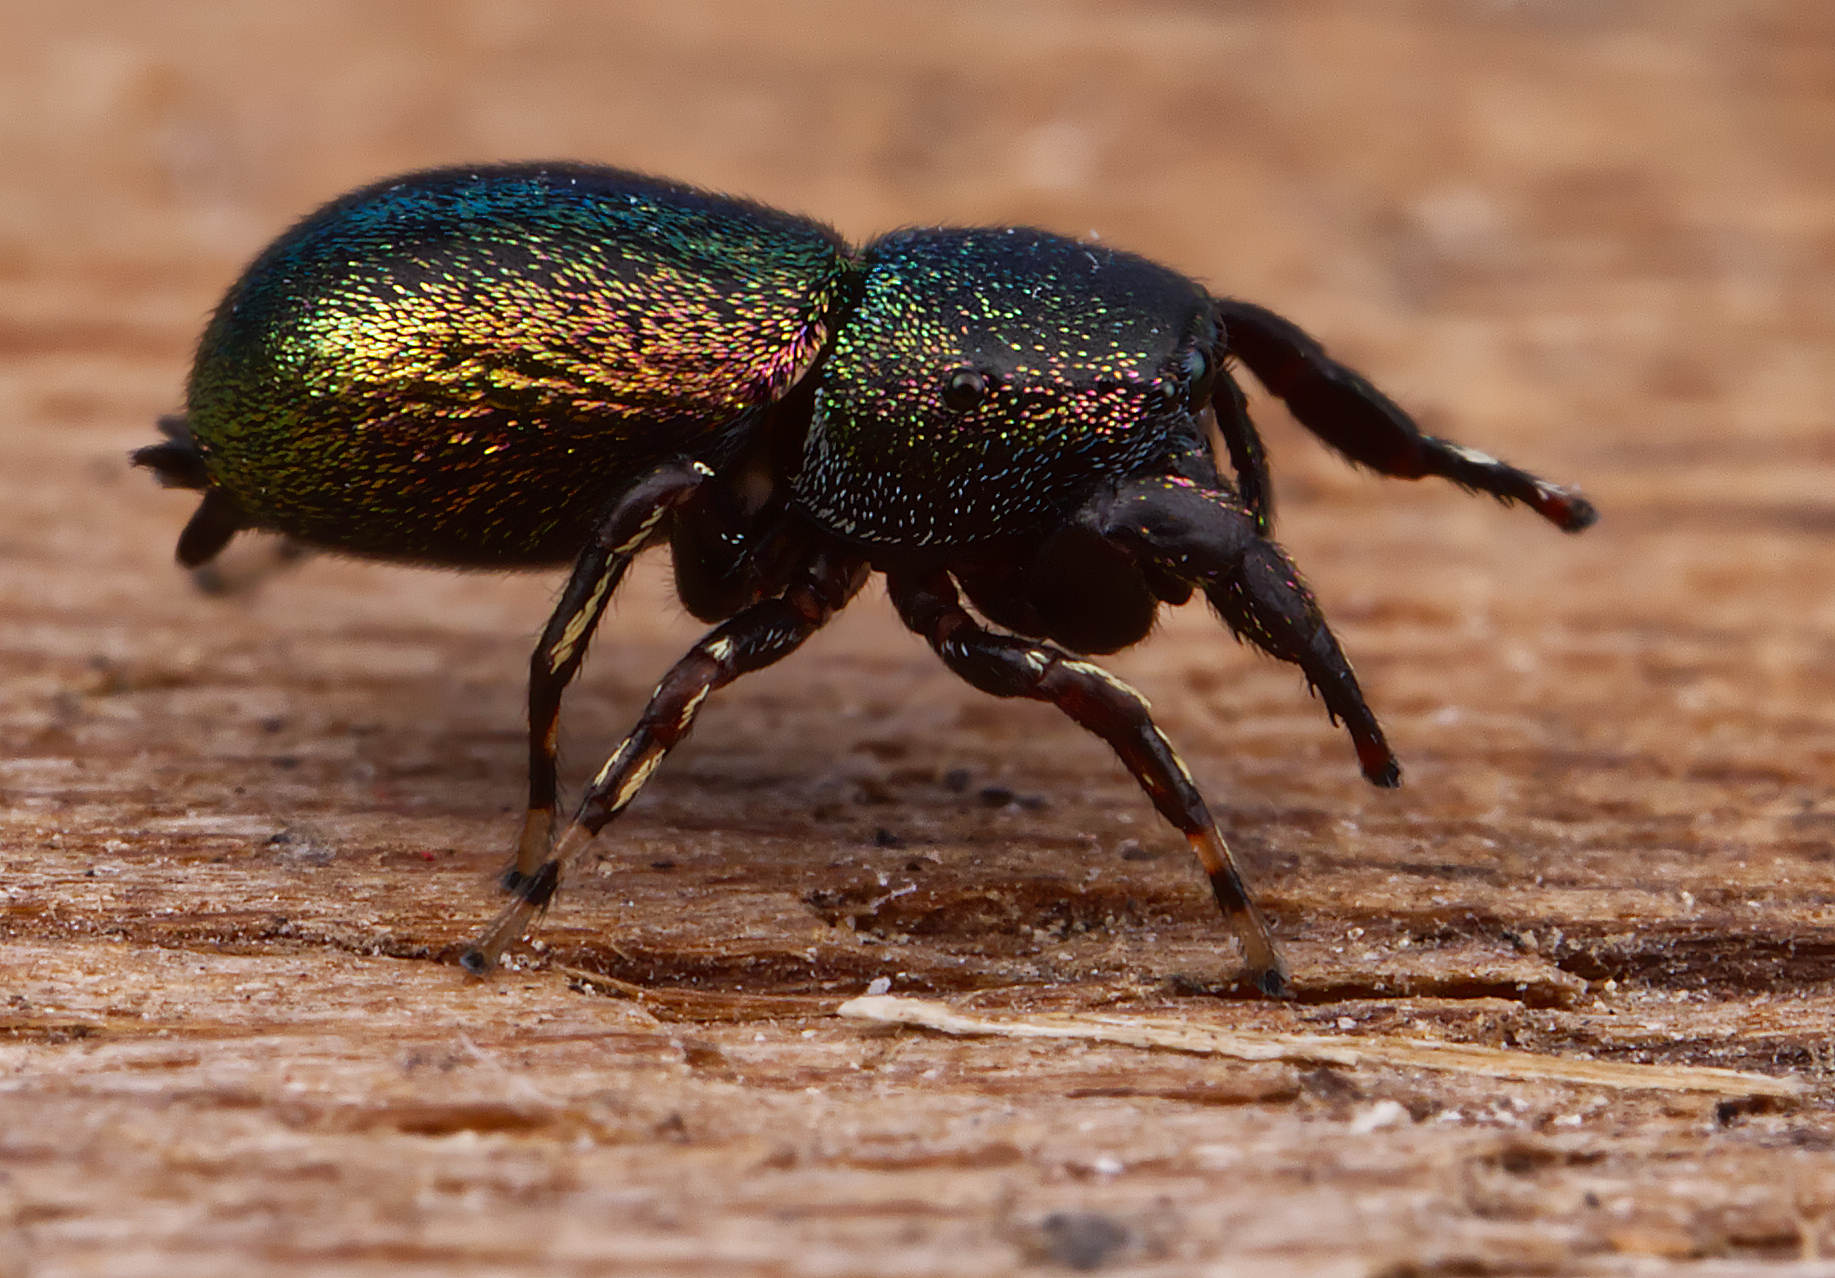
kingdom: Animalia
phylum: Arthropoda
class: Arachnida
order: Araneae
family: Salticidae
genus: Sassacus
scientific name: Sassacus cyaneus
